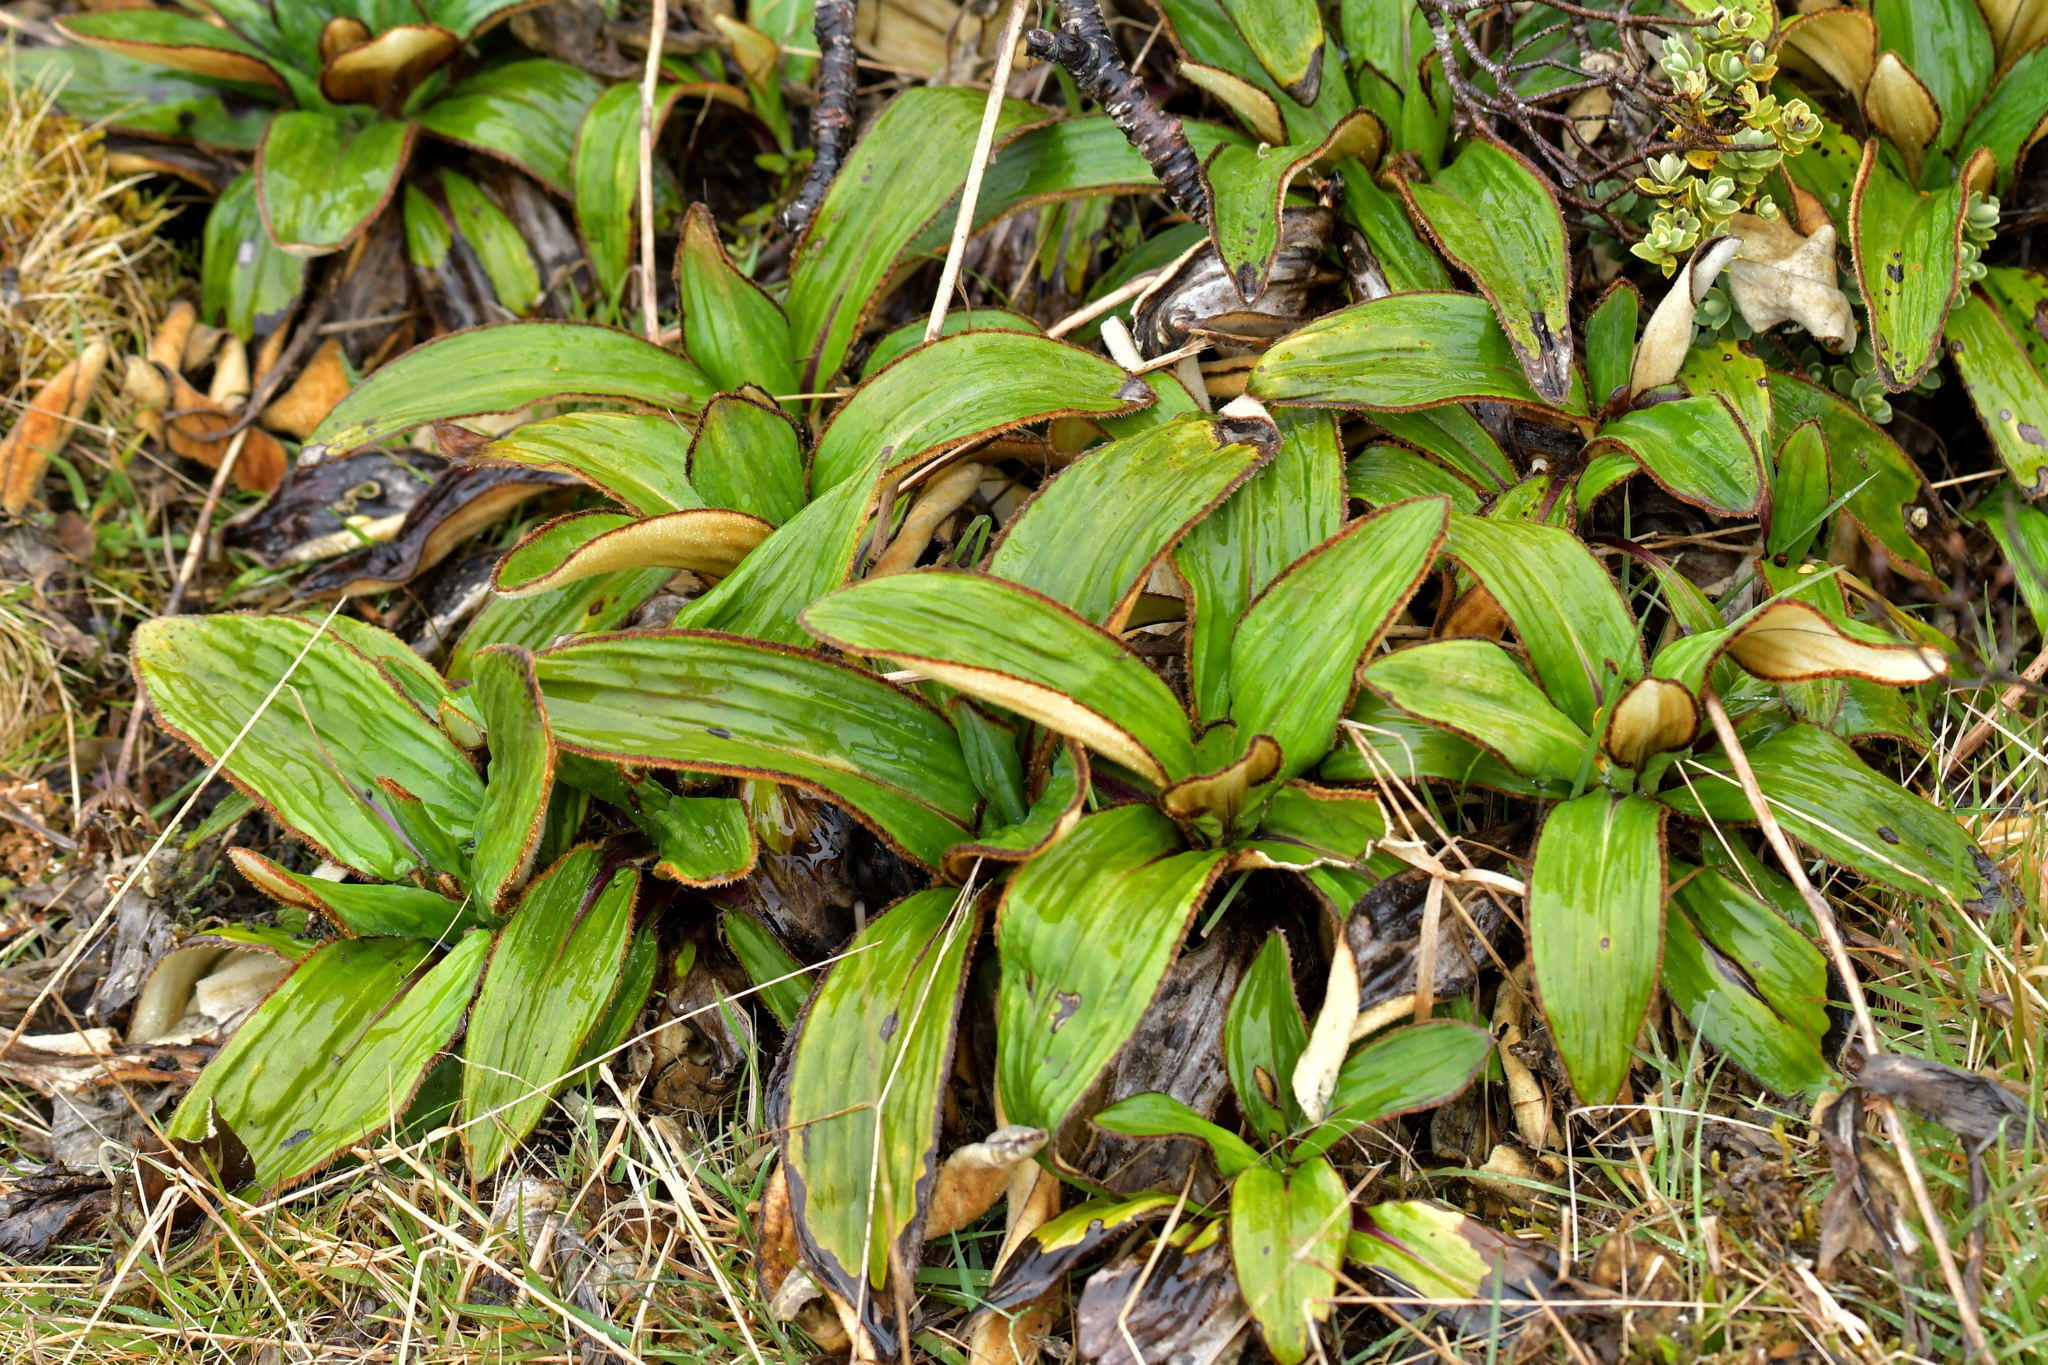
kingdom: Plantae
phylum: Tracheophyta
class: Magnoliopsida
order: Asterales
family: Asteraceae
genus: Celmisia
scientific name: Celmisia traversii
